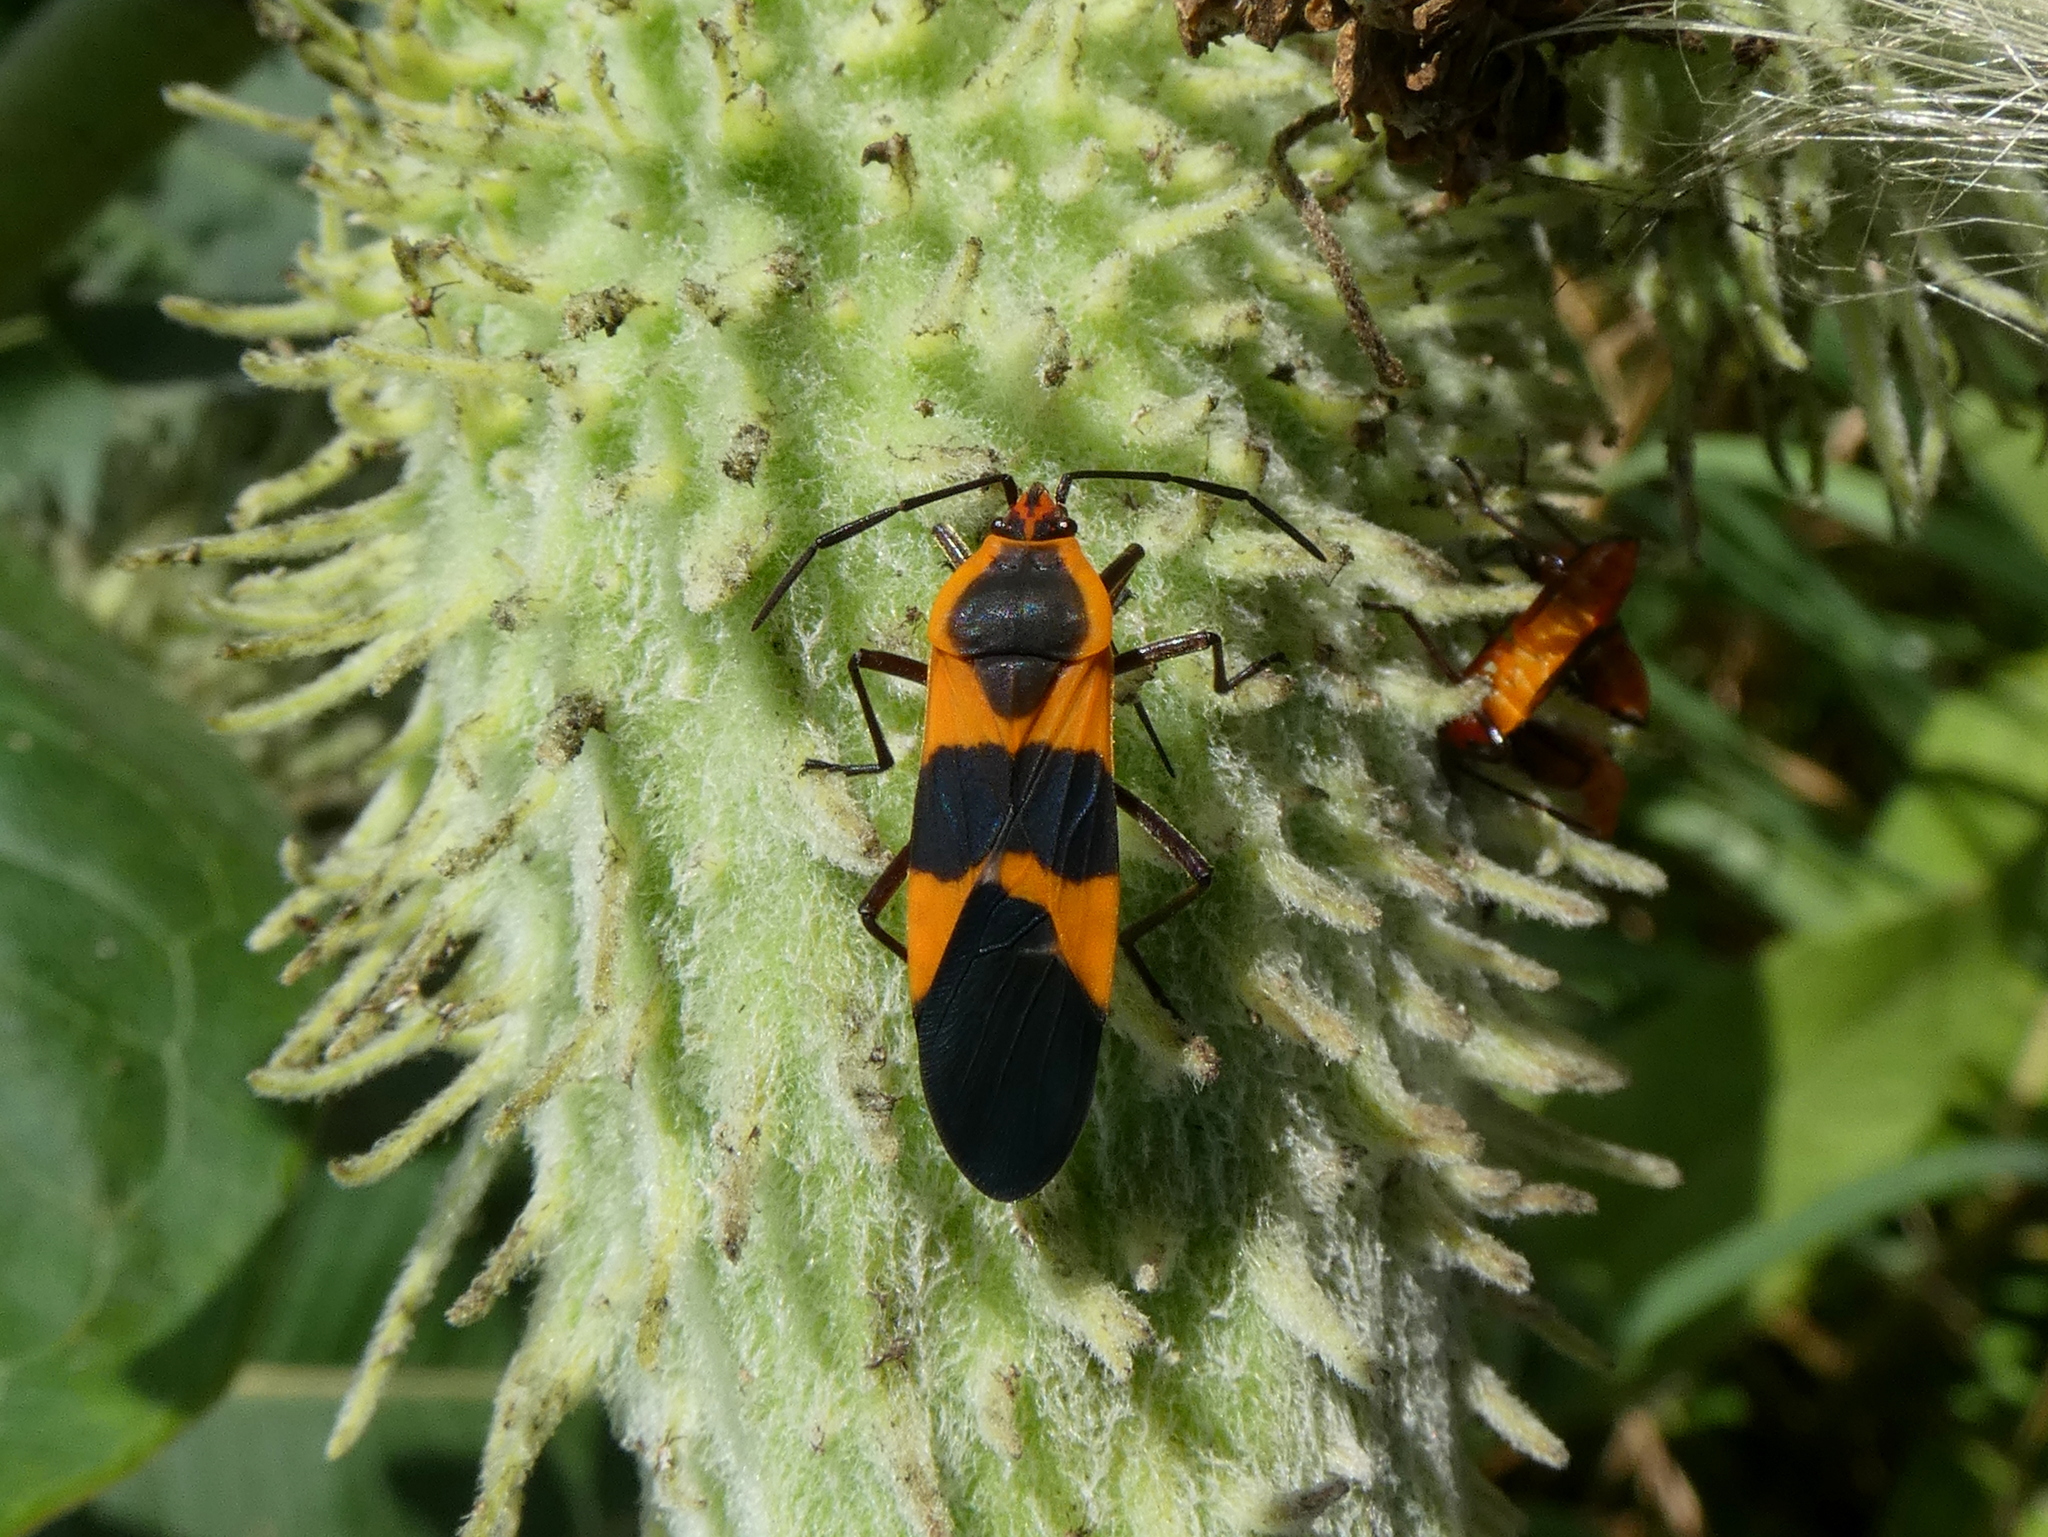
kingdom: Animalia
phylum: Arthropoda
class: Insecta
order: Hemiptera
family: Lygaeidae
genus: Oncopeltus
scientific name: Oncopeltus fasciatus
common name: Large milkweed bug
